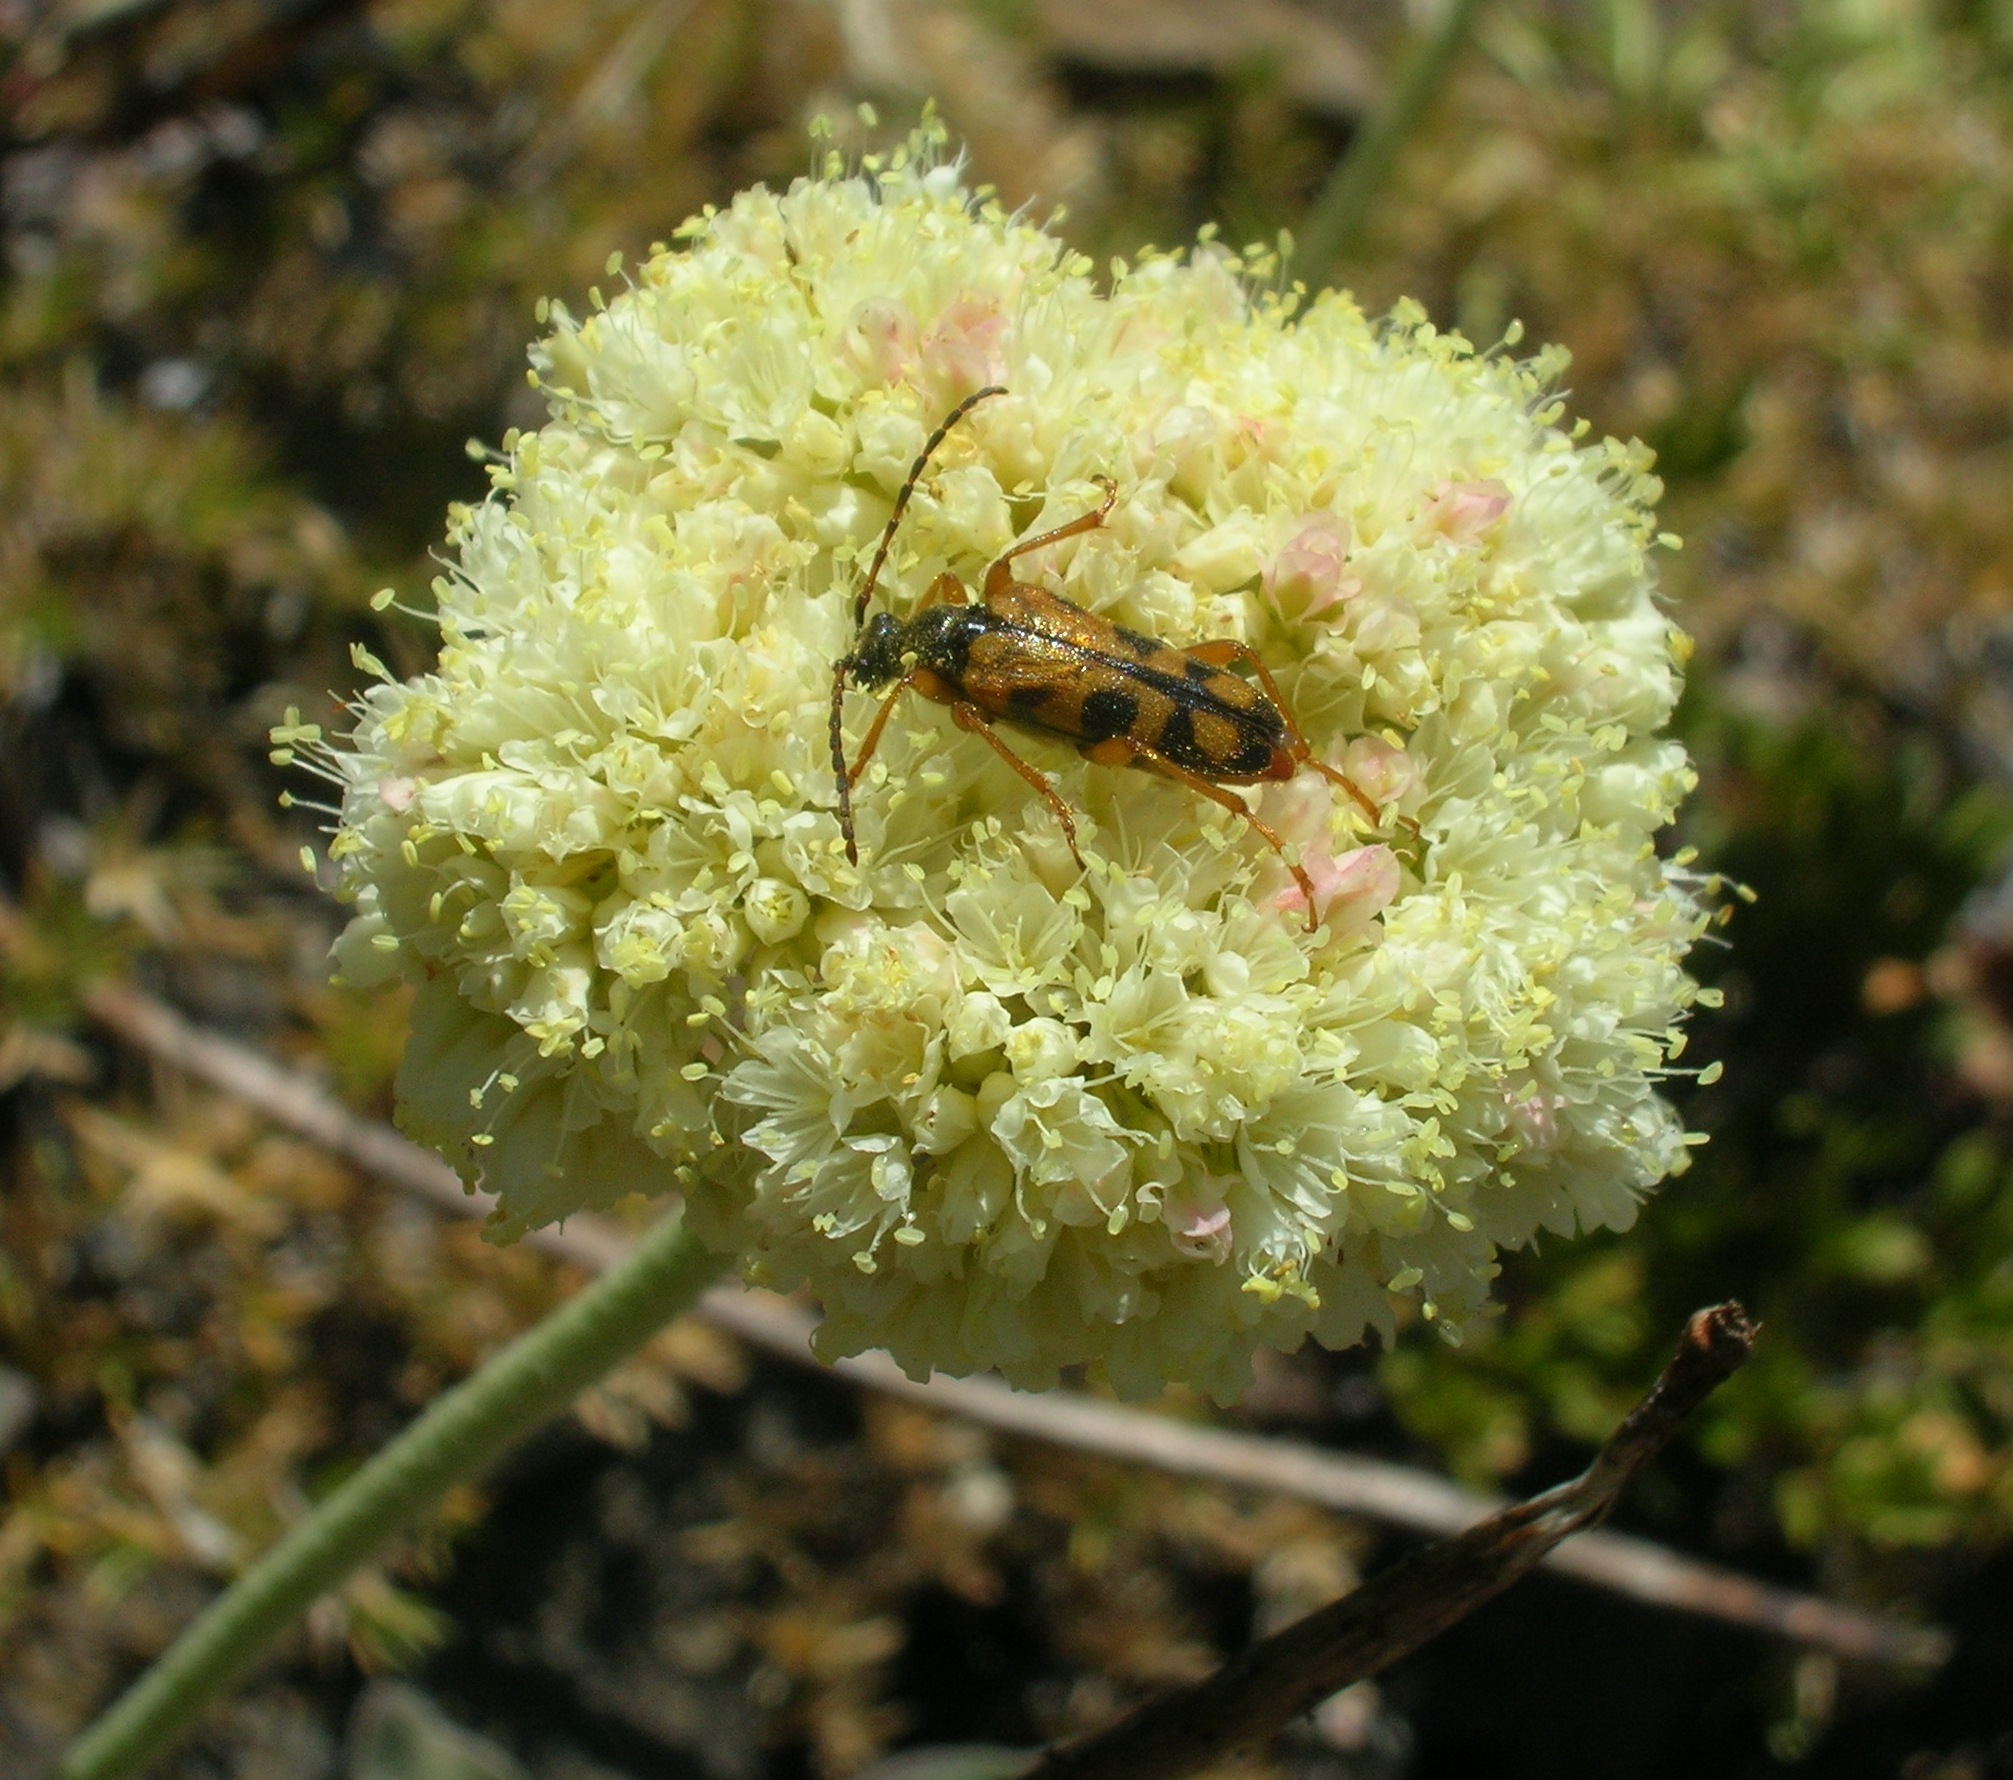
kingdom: Animalia
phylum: Arthropoda
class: Insecta
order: Coleoptera
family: Cerambycidae
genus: Xestoleptura
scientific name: Xestoleptura crassipes
